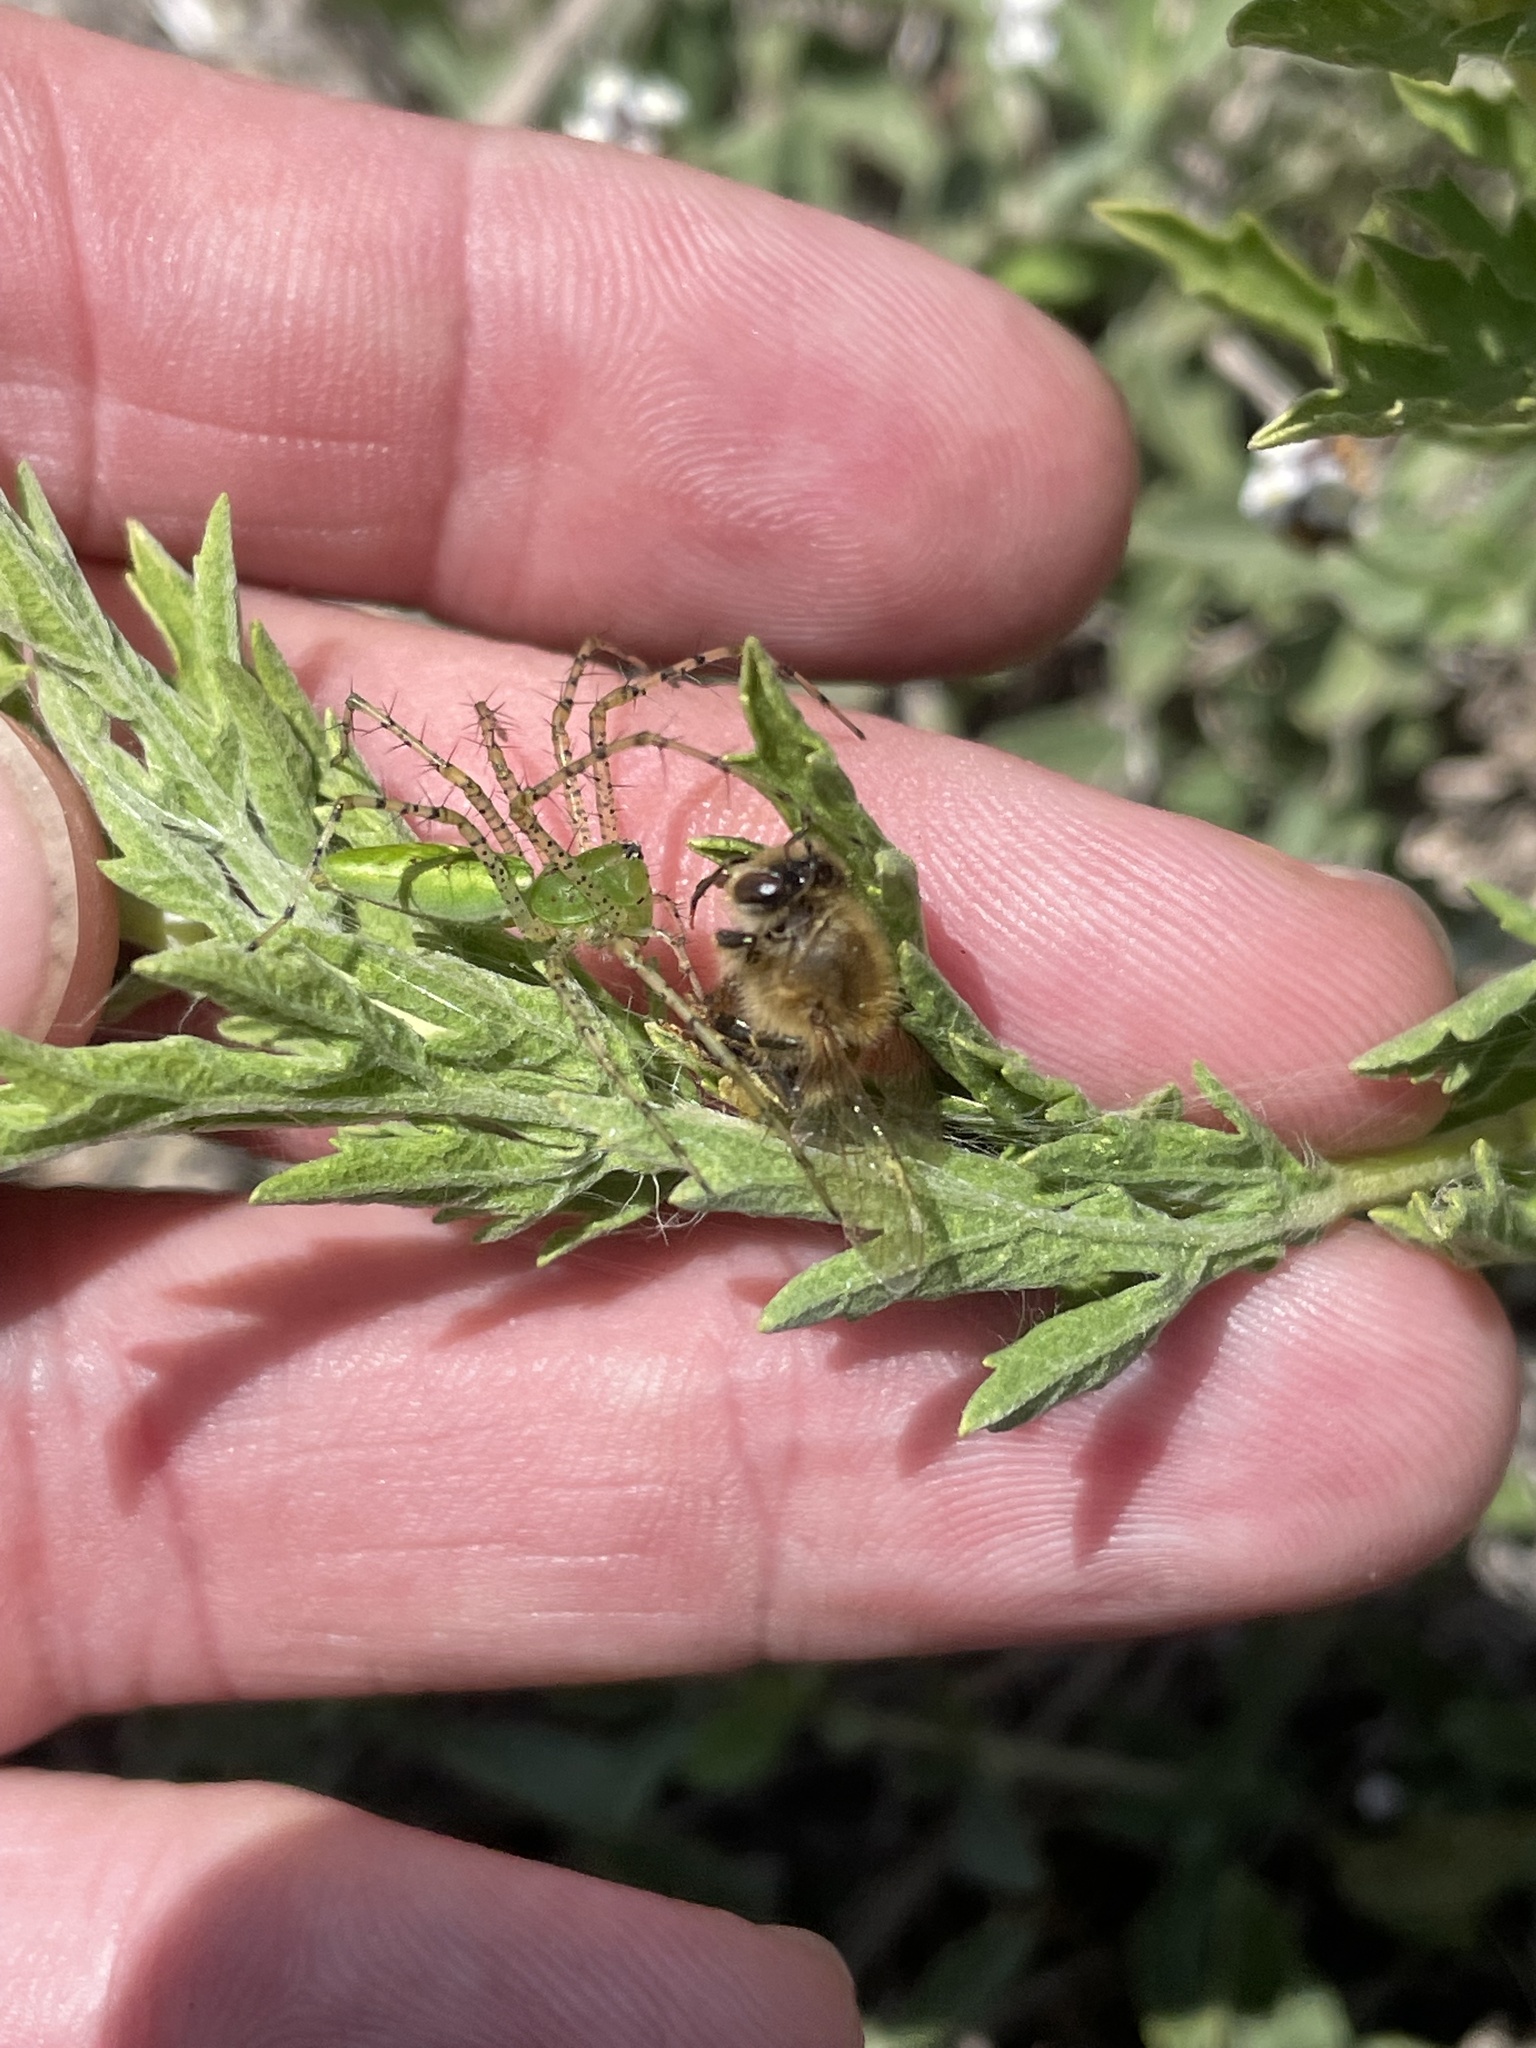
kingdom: Animalia
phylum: Arthropoda
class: Insecta
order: Hymenoptera
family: Apidae
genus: Apis
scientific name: Apis mellifera
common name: Honey bee
